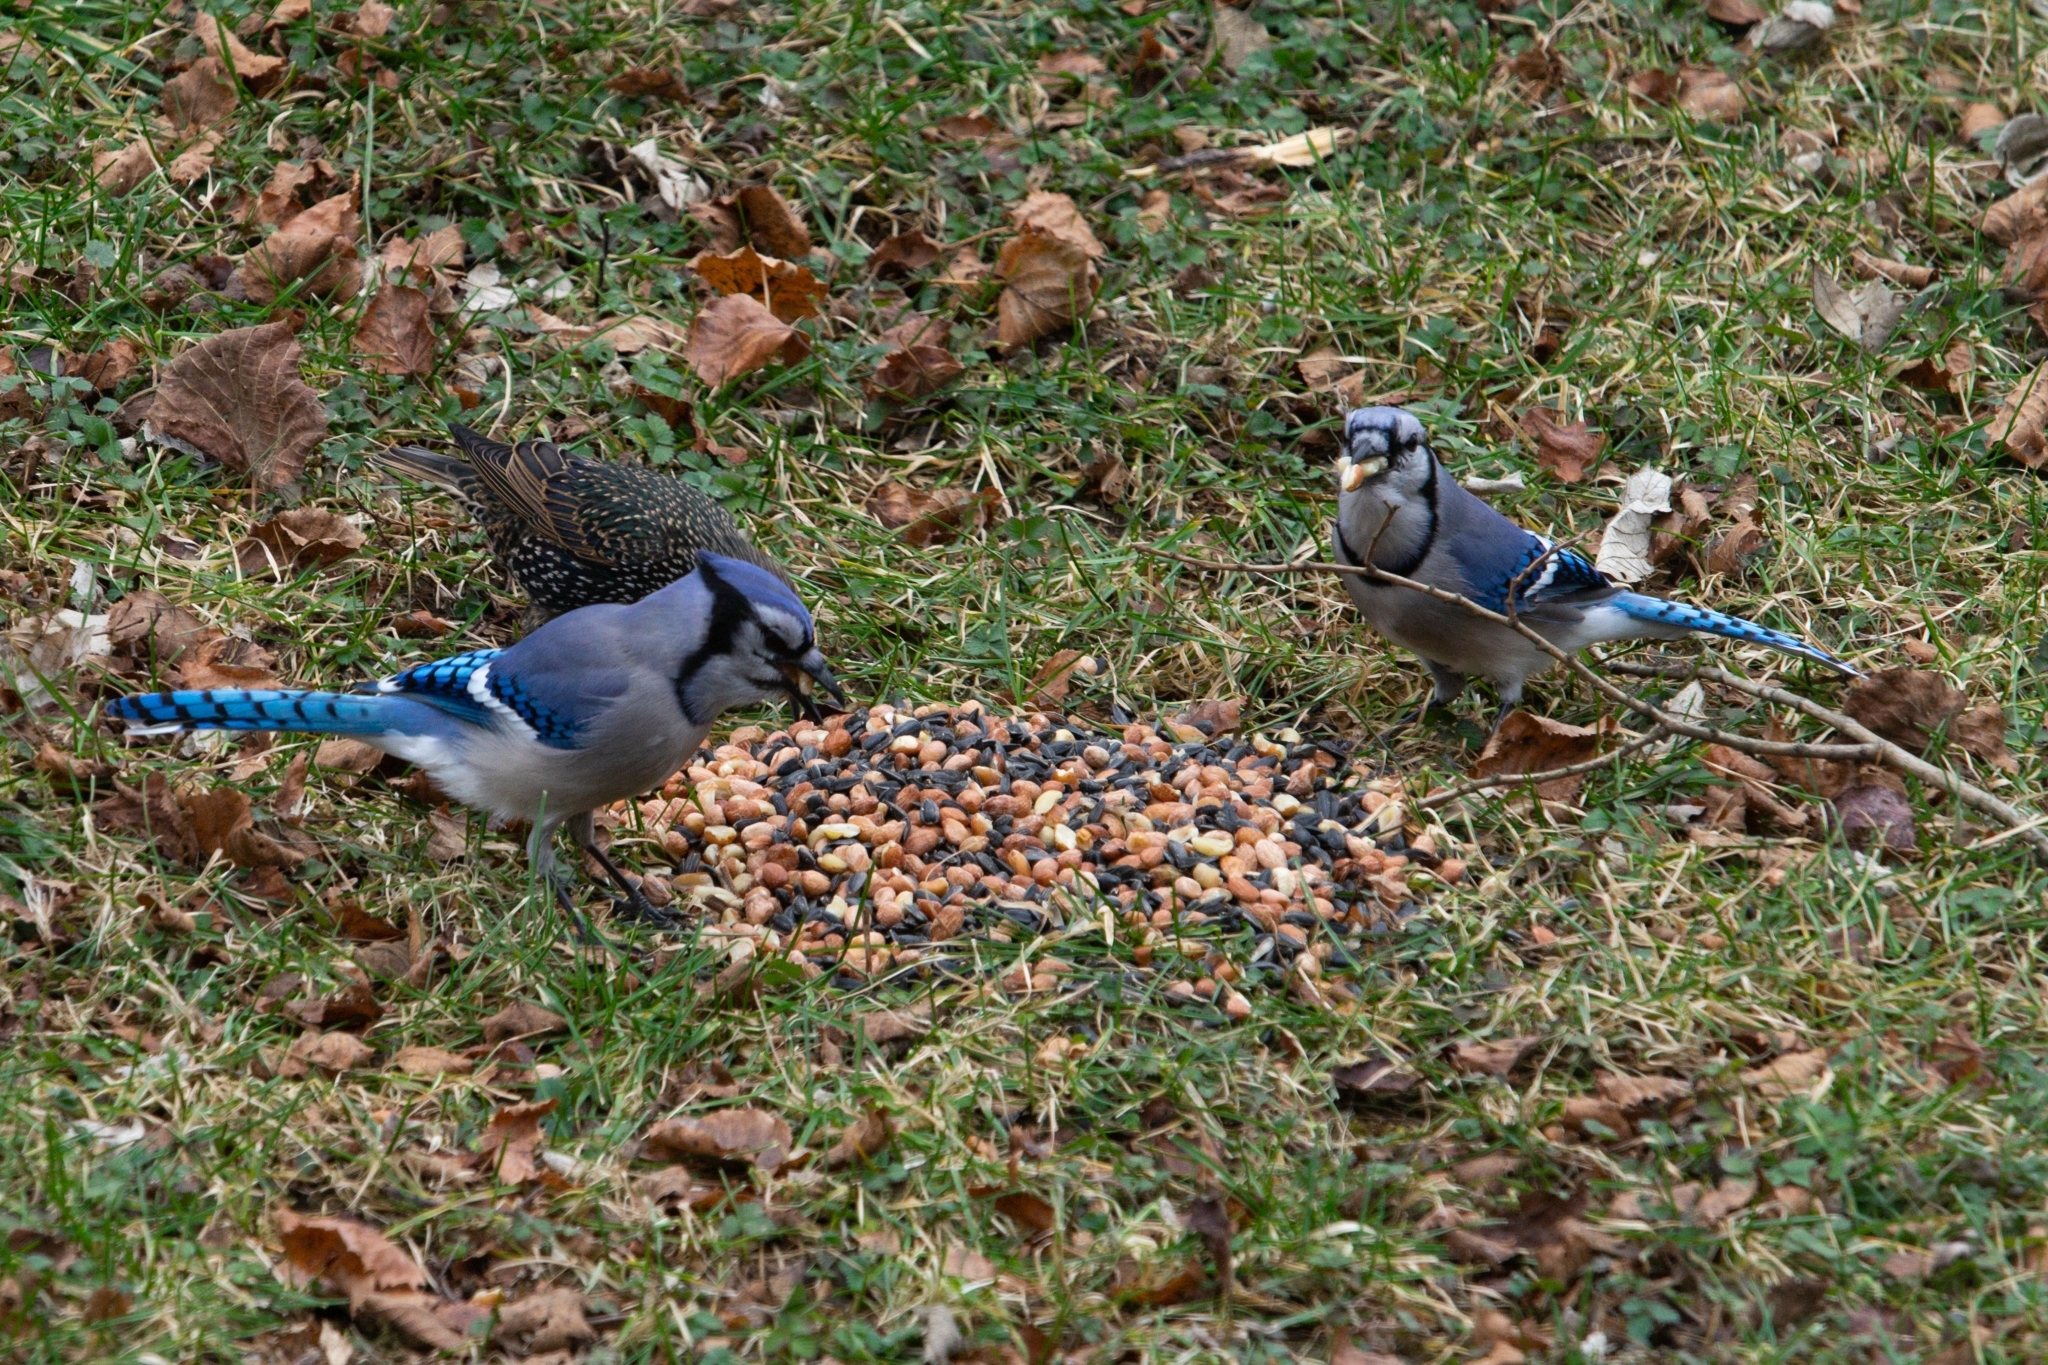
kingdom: Animalia
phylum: Chordata
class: Aves
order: Passeriformes
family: Corvidae
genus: Cyanocitta
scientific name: Cyanocitta cristata
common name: Blue jay
